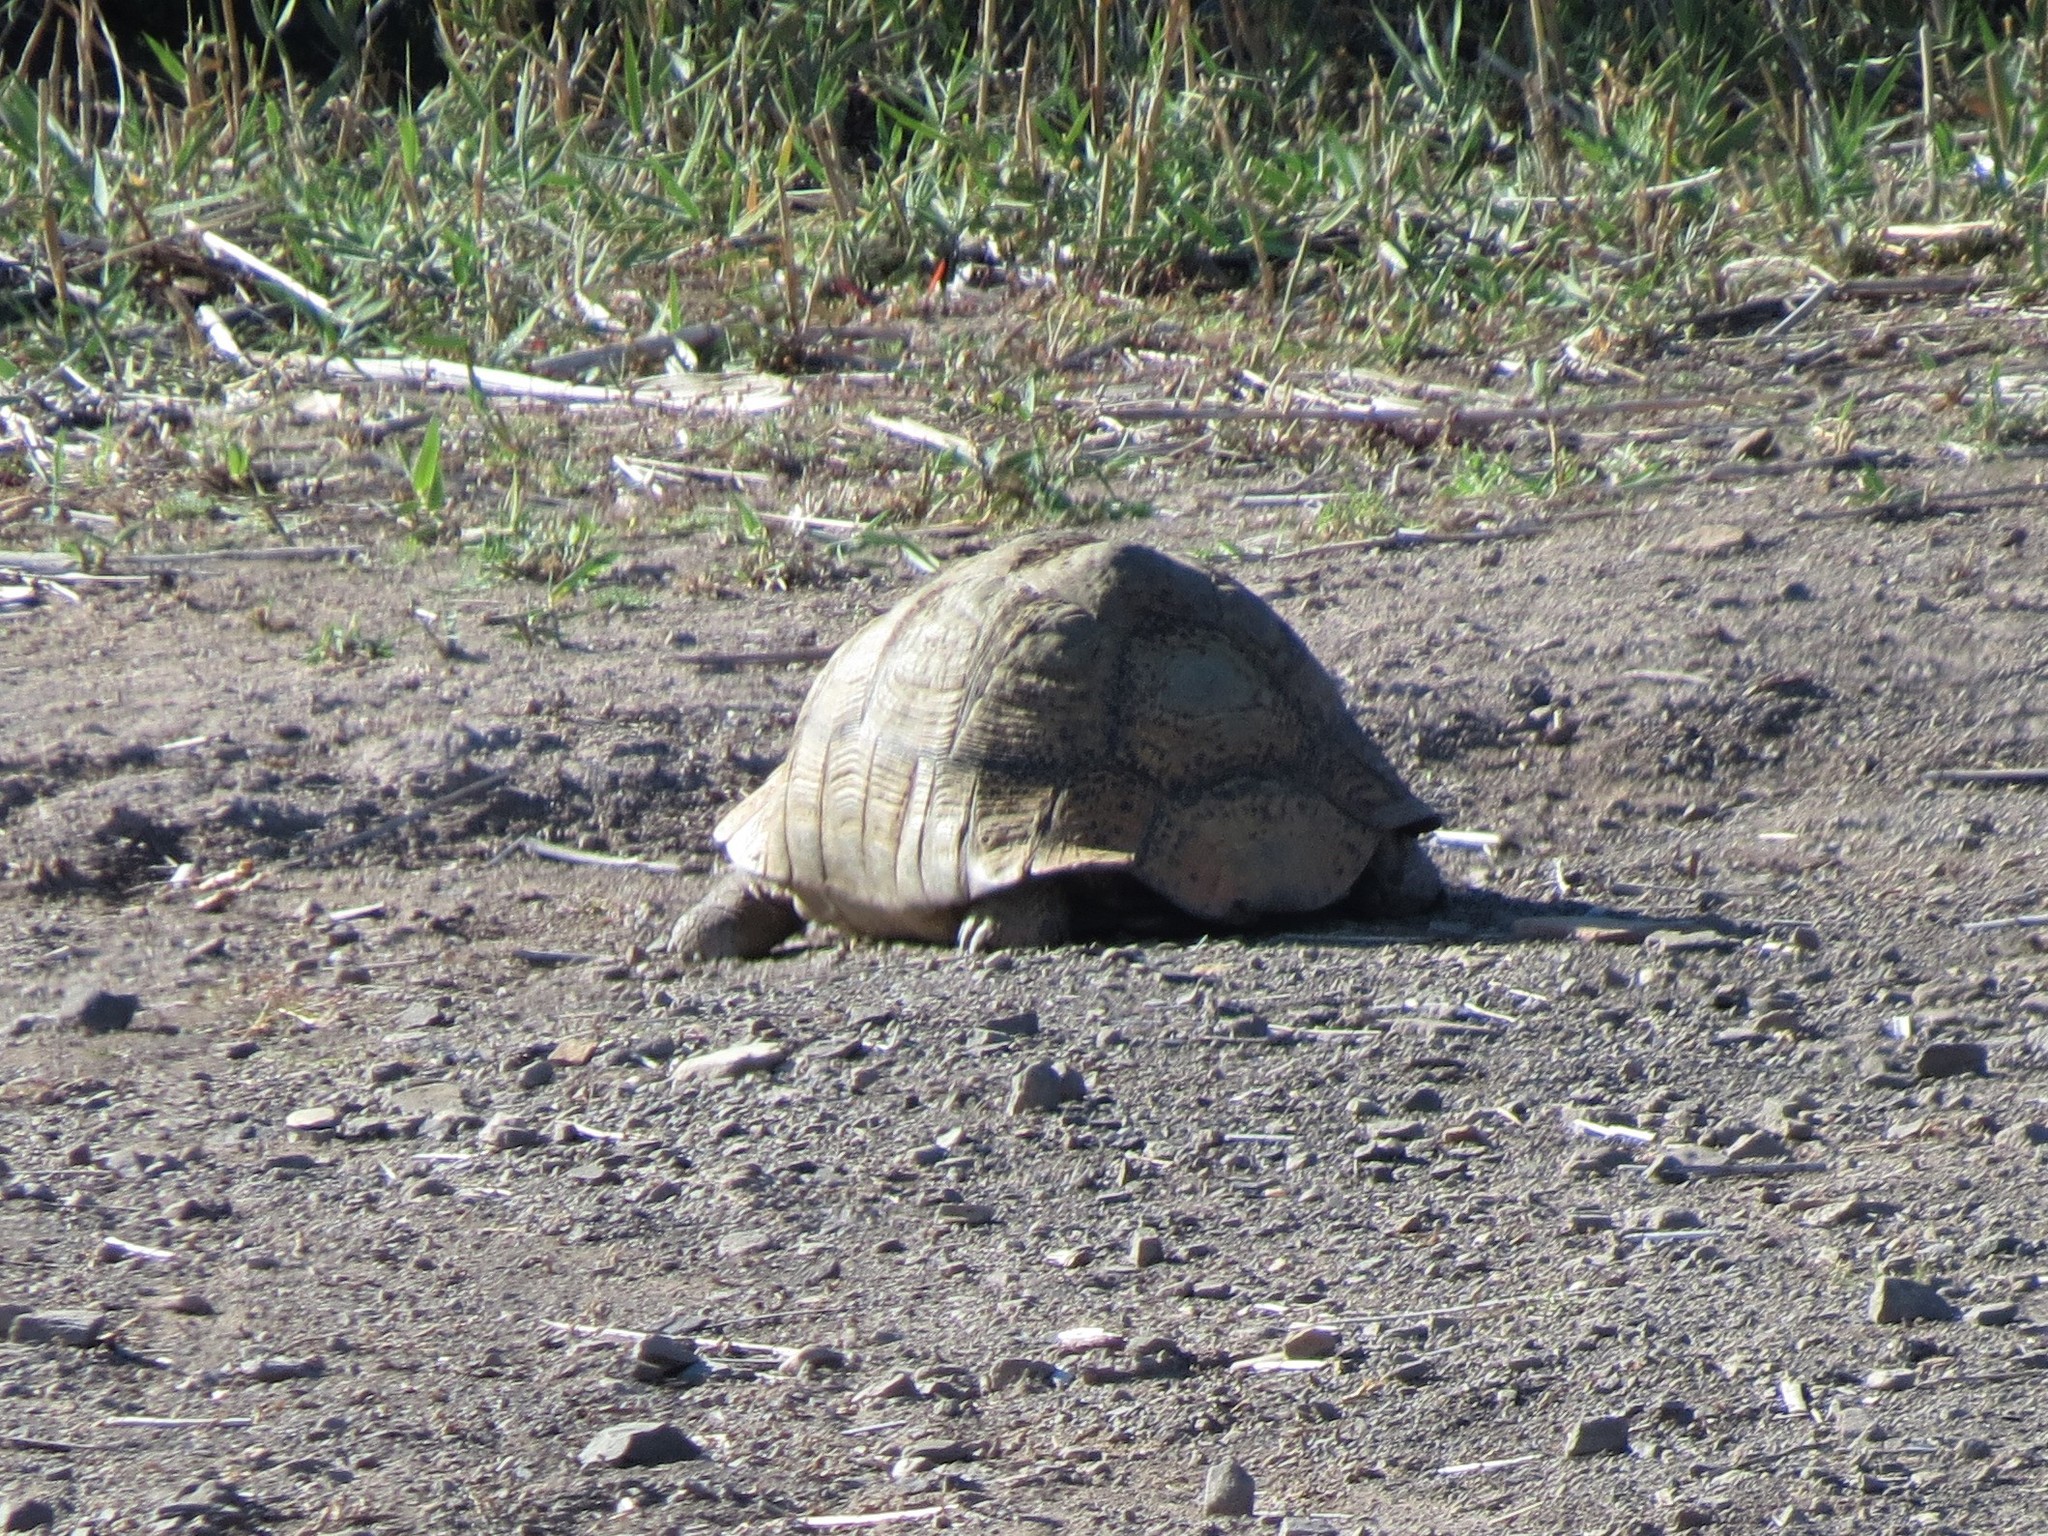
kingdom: Animalia
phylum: Chordata
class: Testudines
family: Testudinidae
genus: Stigmochelys
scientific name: Stigmochelys pardalis
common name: Leopard tortoise
